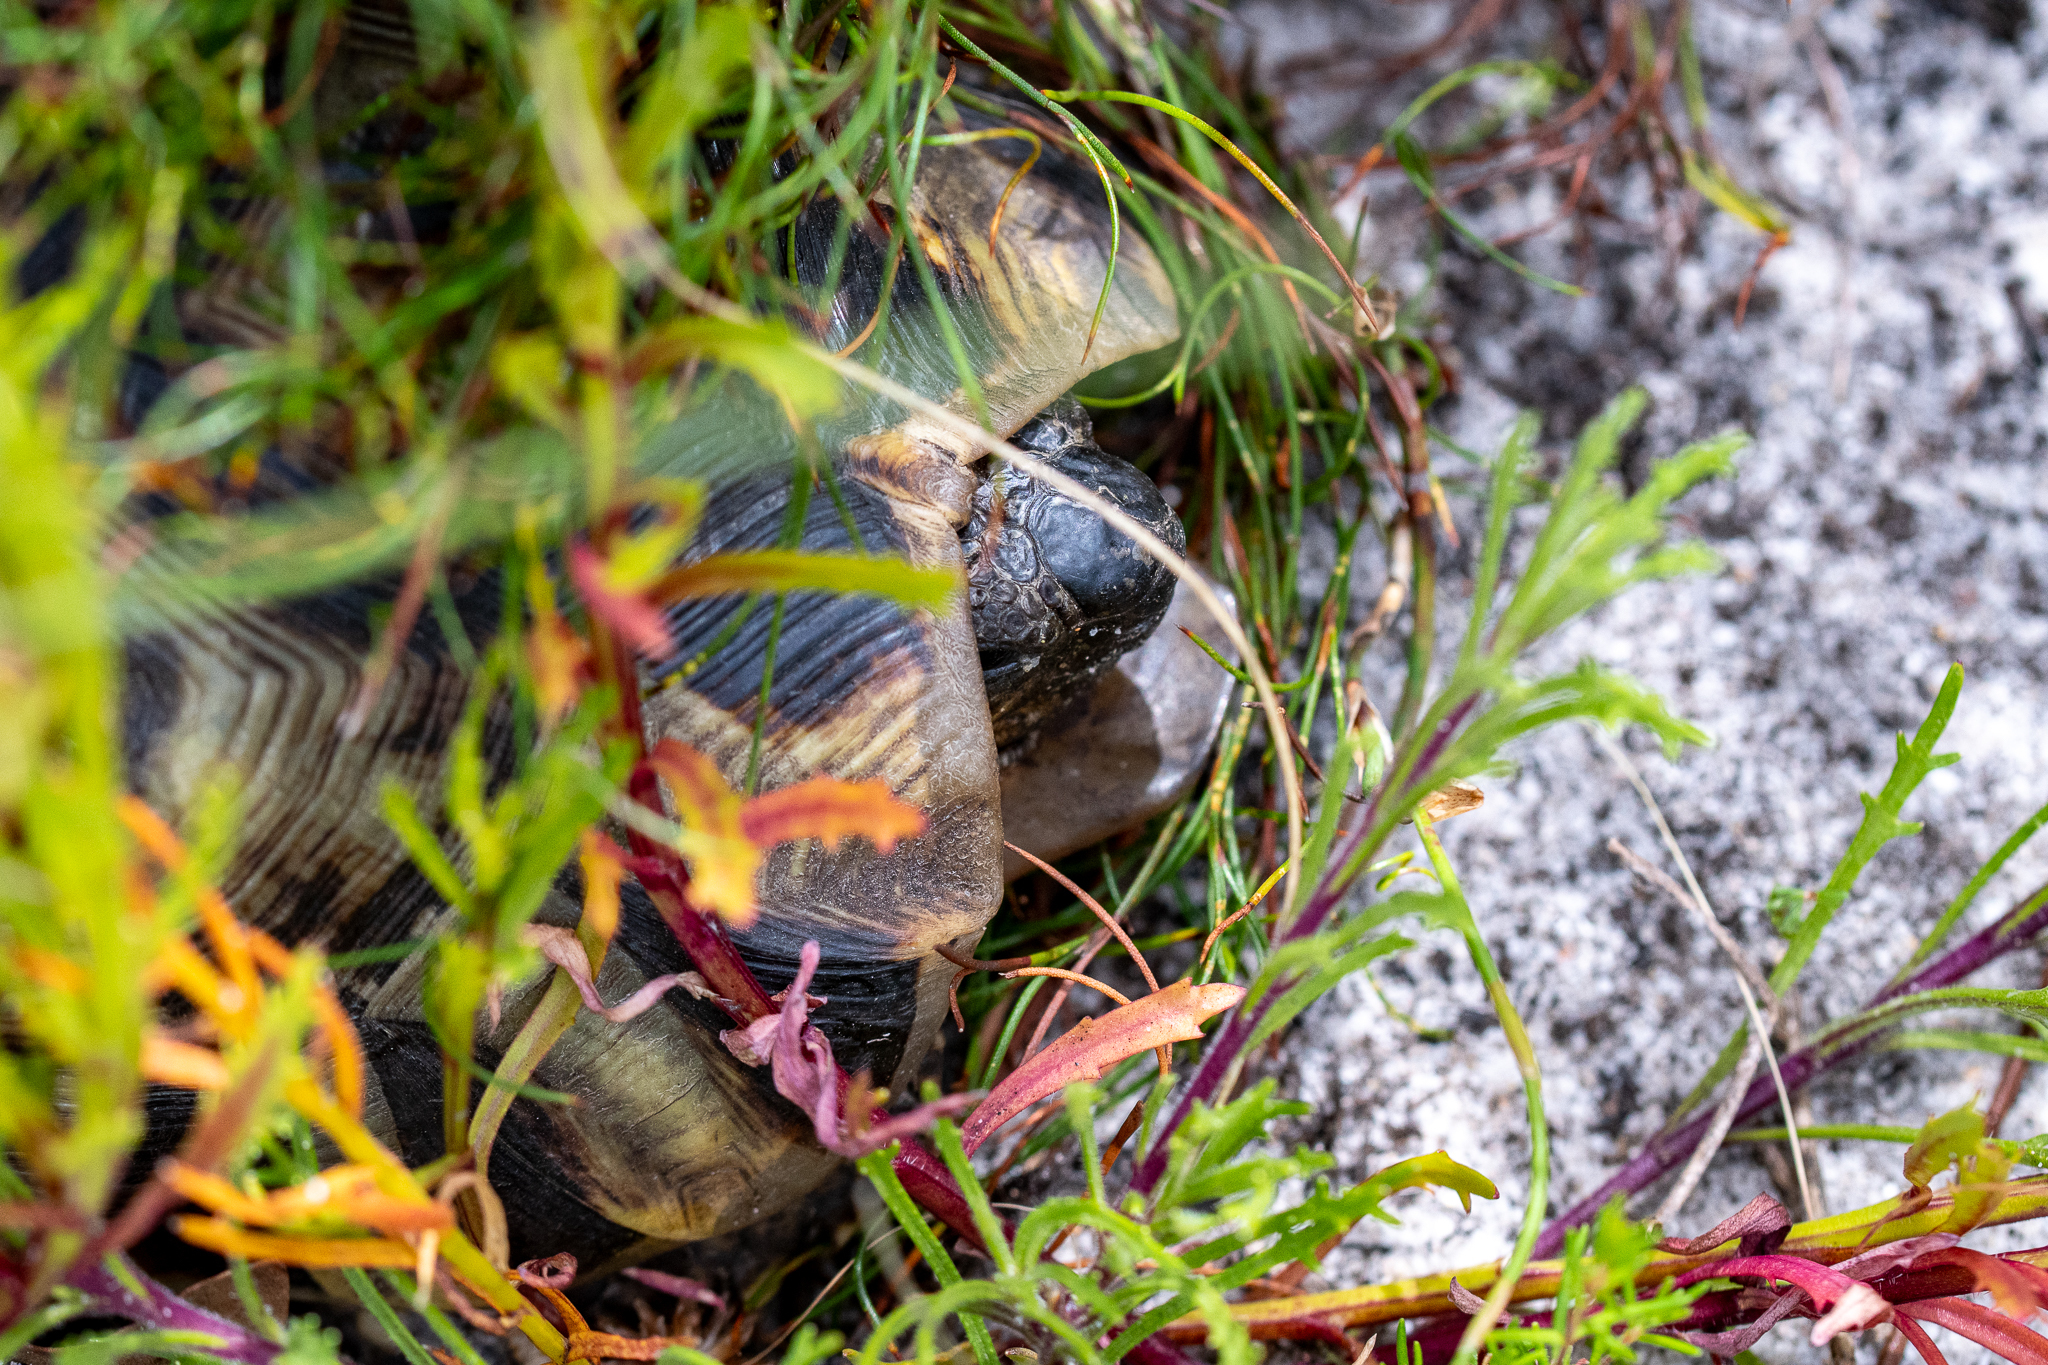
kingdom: Animalia
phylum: Chordata
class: Testudines
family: Testudinidae
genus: Chersina
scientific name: Chersina angulata
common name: South african bowsprit tortoise
